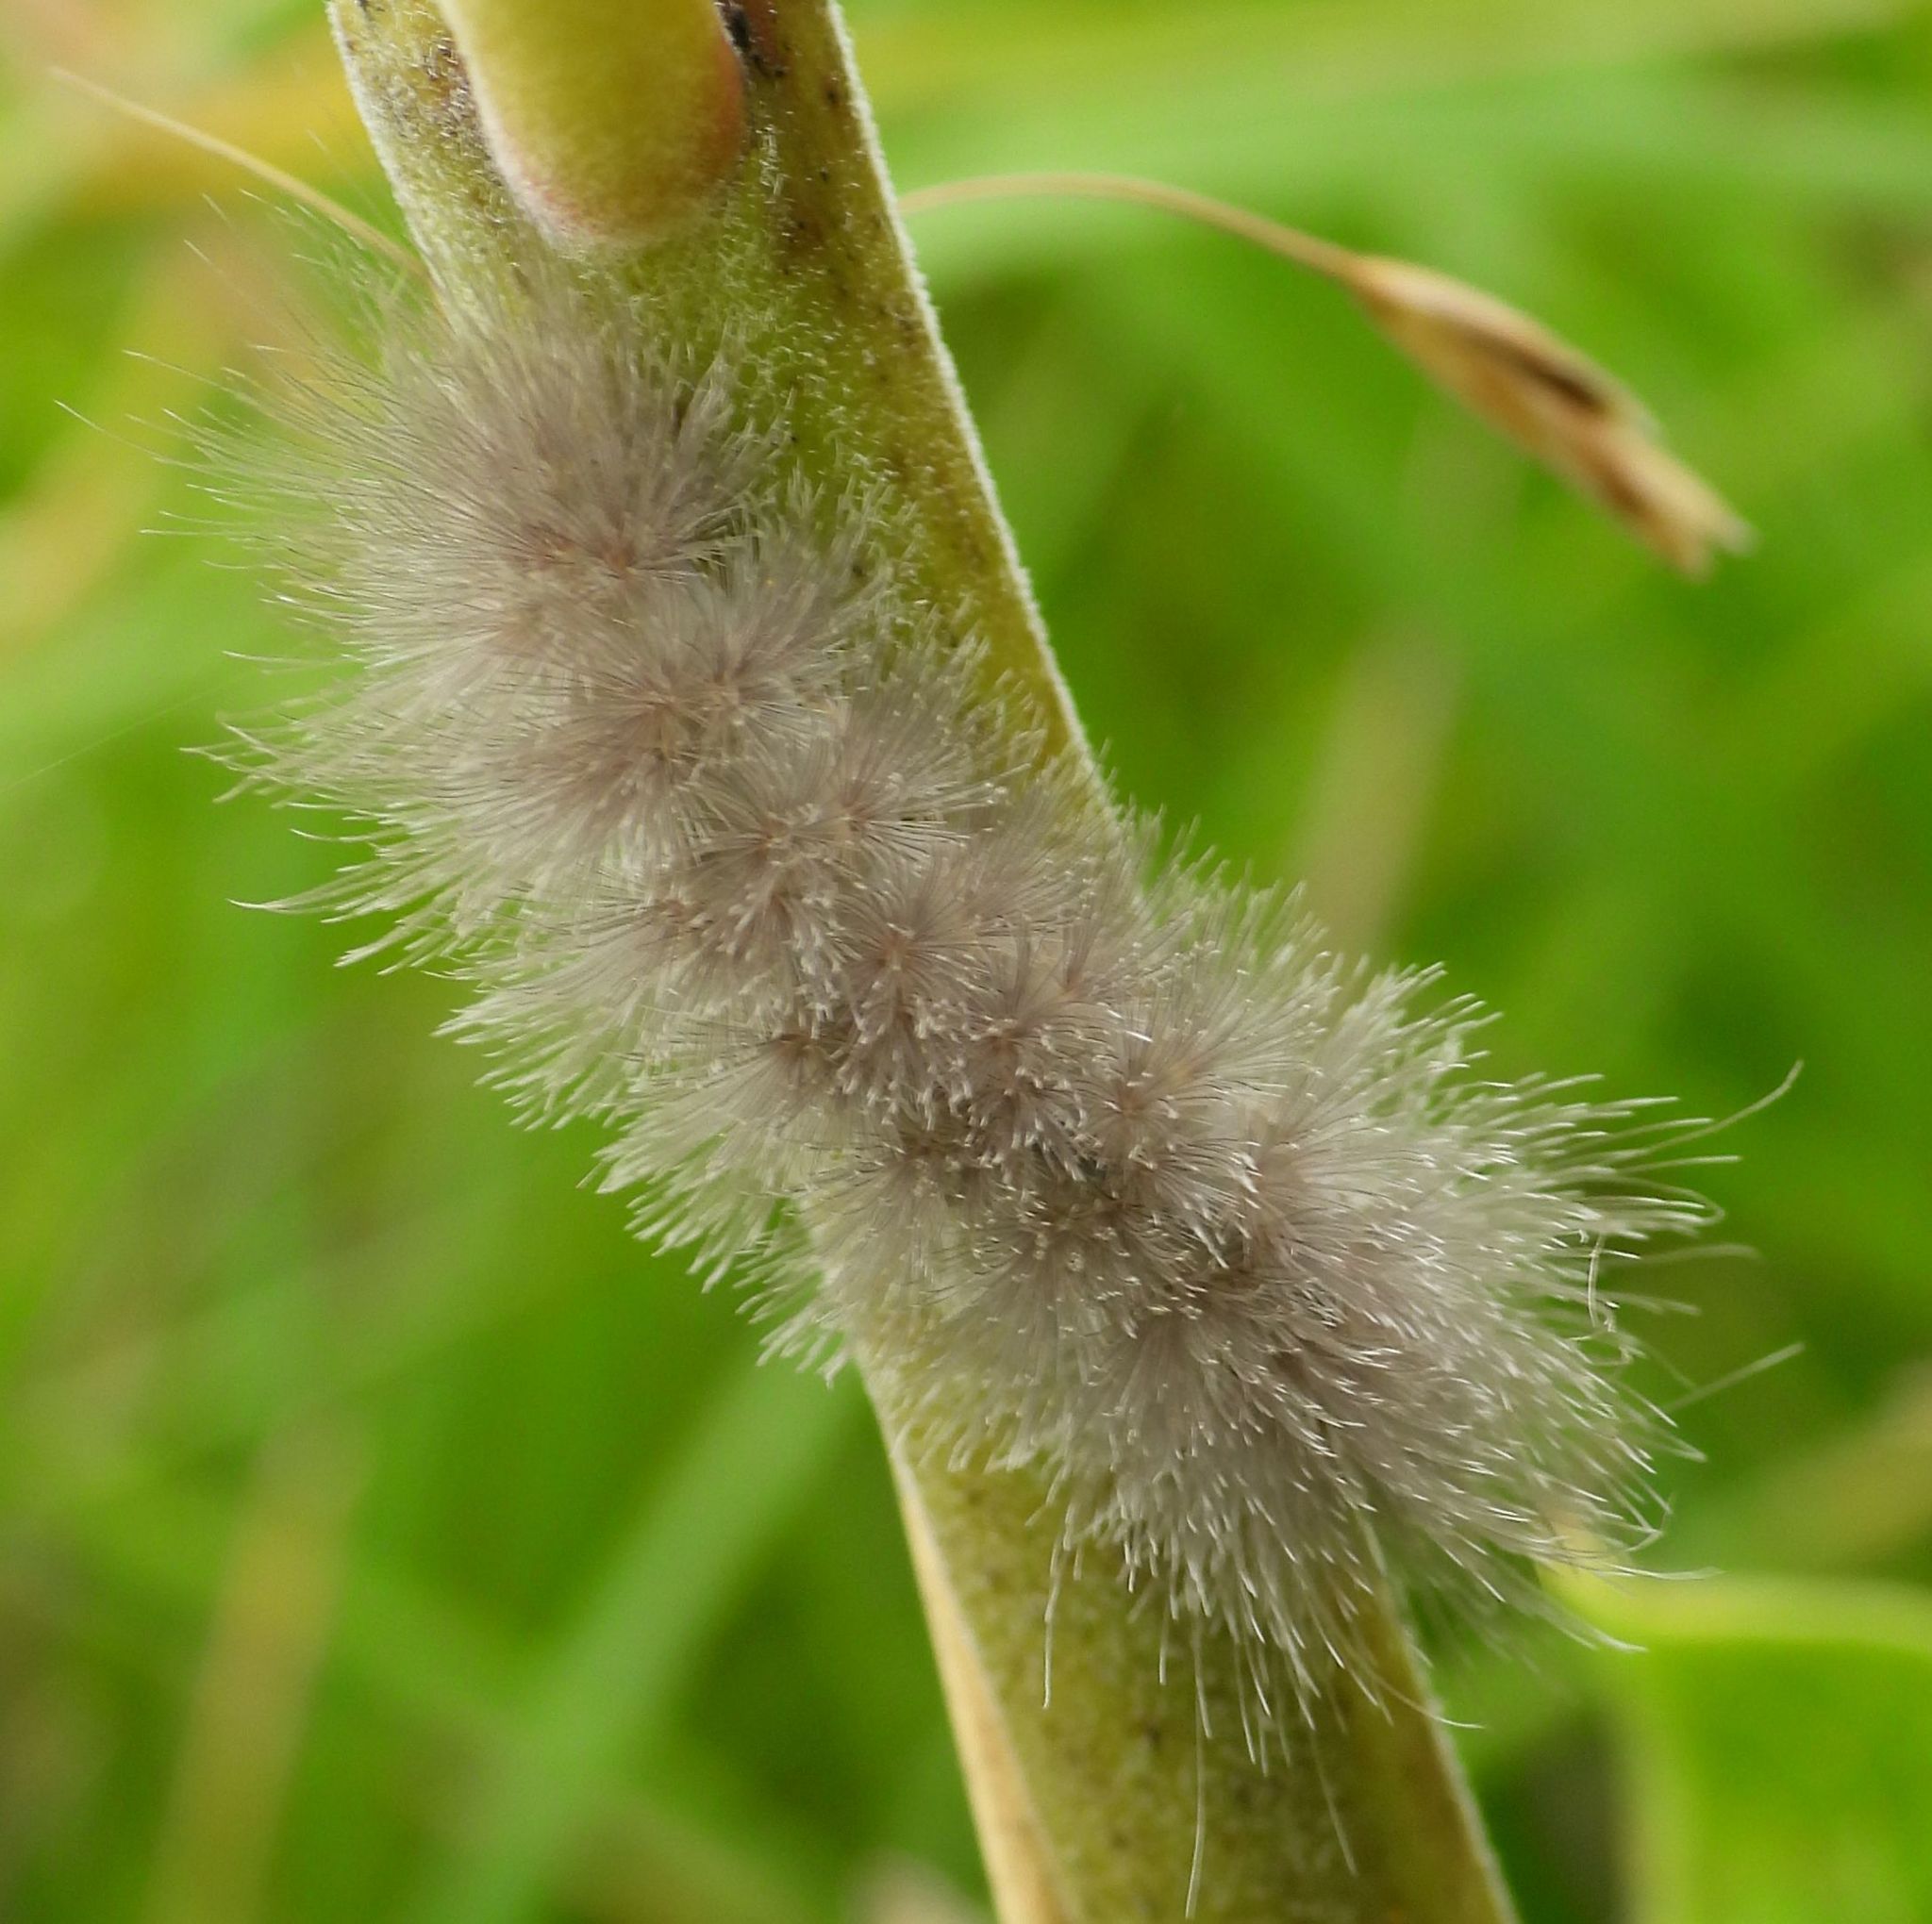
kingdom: Animalia
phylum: Arthropoda
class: Insecta
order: Lepidoptera
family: Erebidae
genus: Cycnia
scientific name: Cycnia tenera
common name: Delicate cycnia moth
